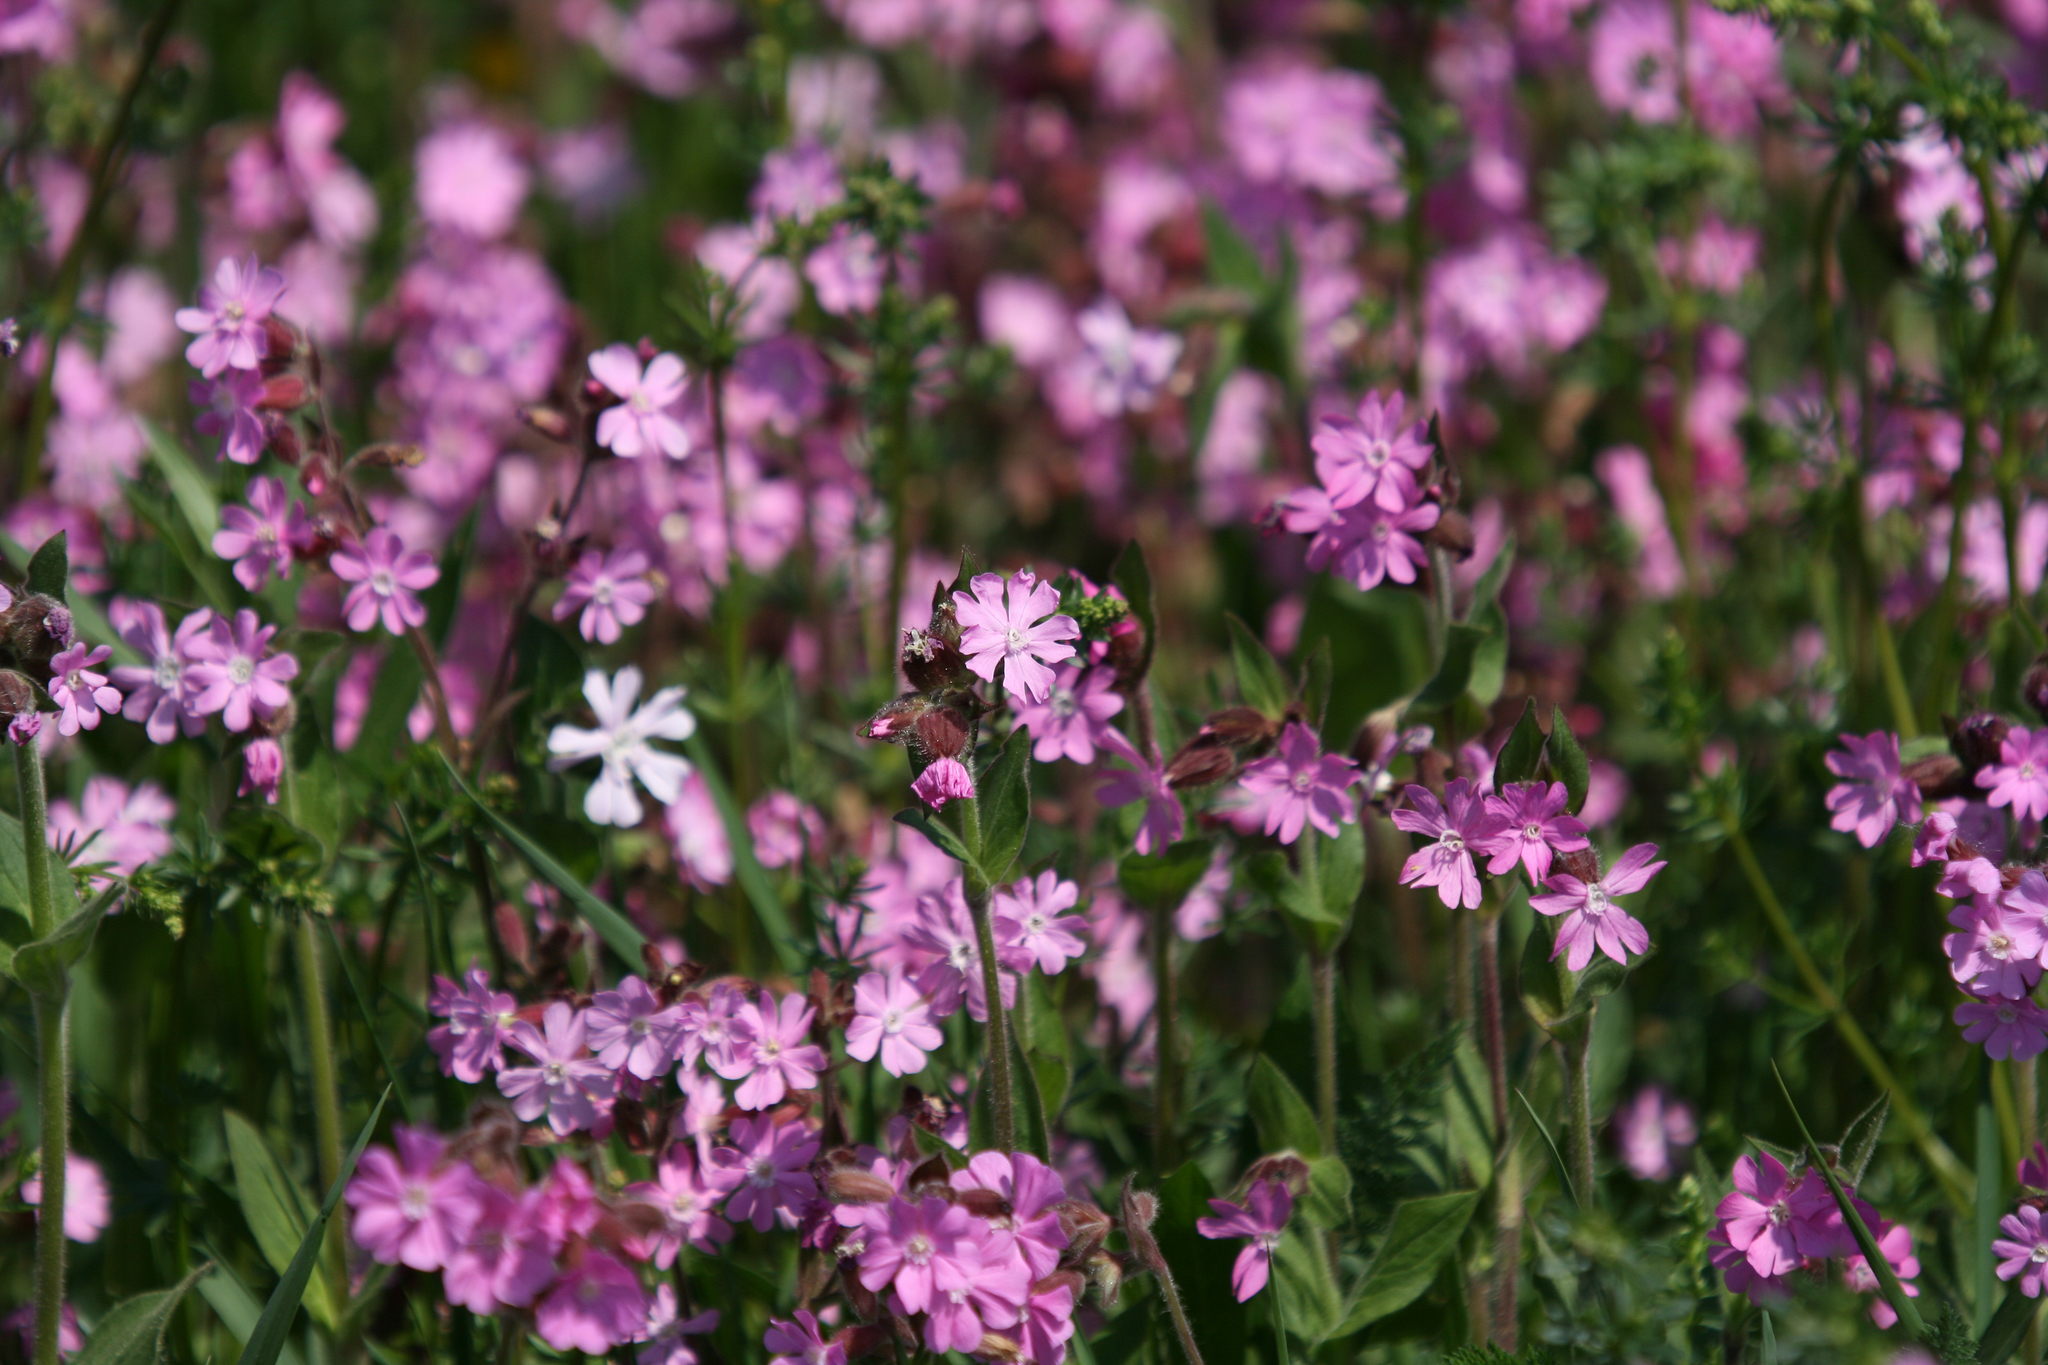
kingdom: Plantae
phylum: Tracheophyta
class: Magnoliopsida
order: Caryophyllales
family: Caryophyllaceae
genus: Silene
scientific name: Silene dioica
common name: Red campion
